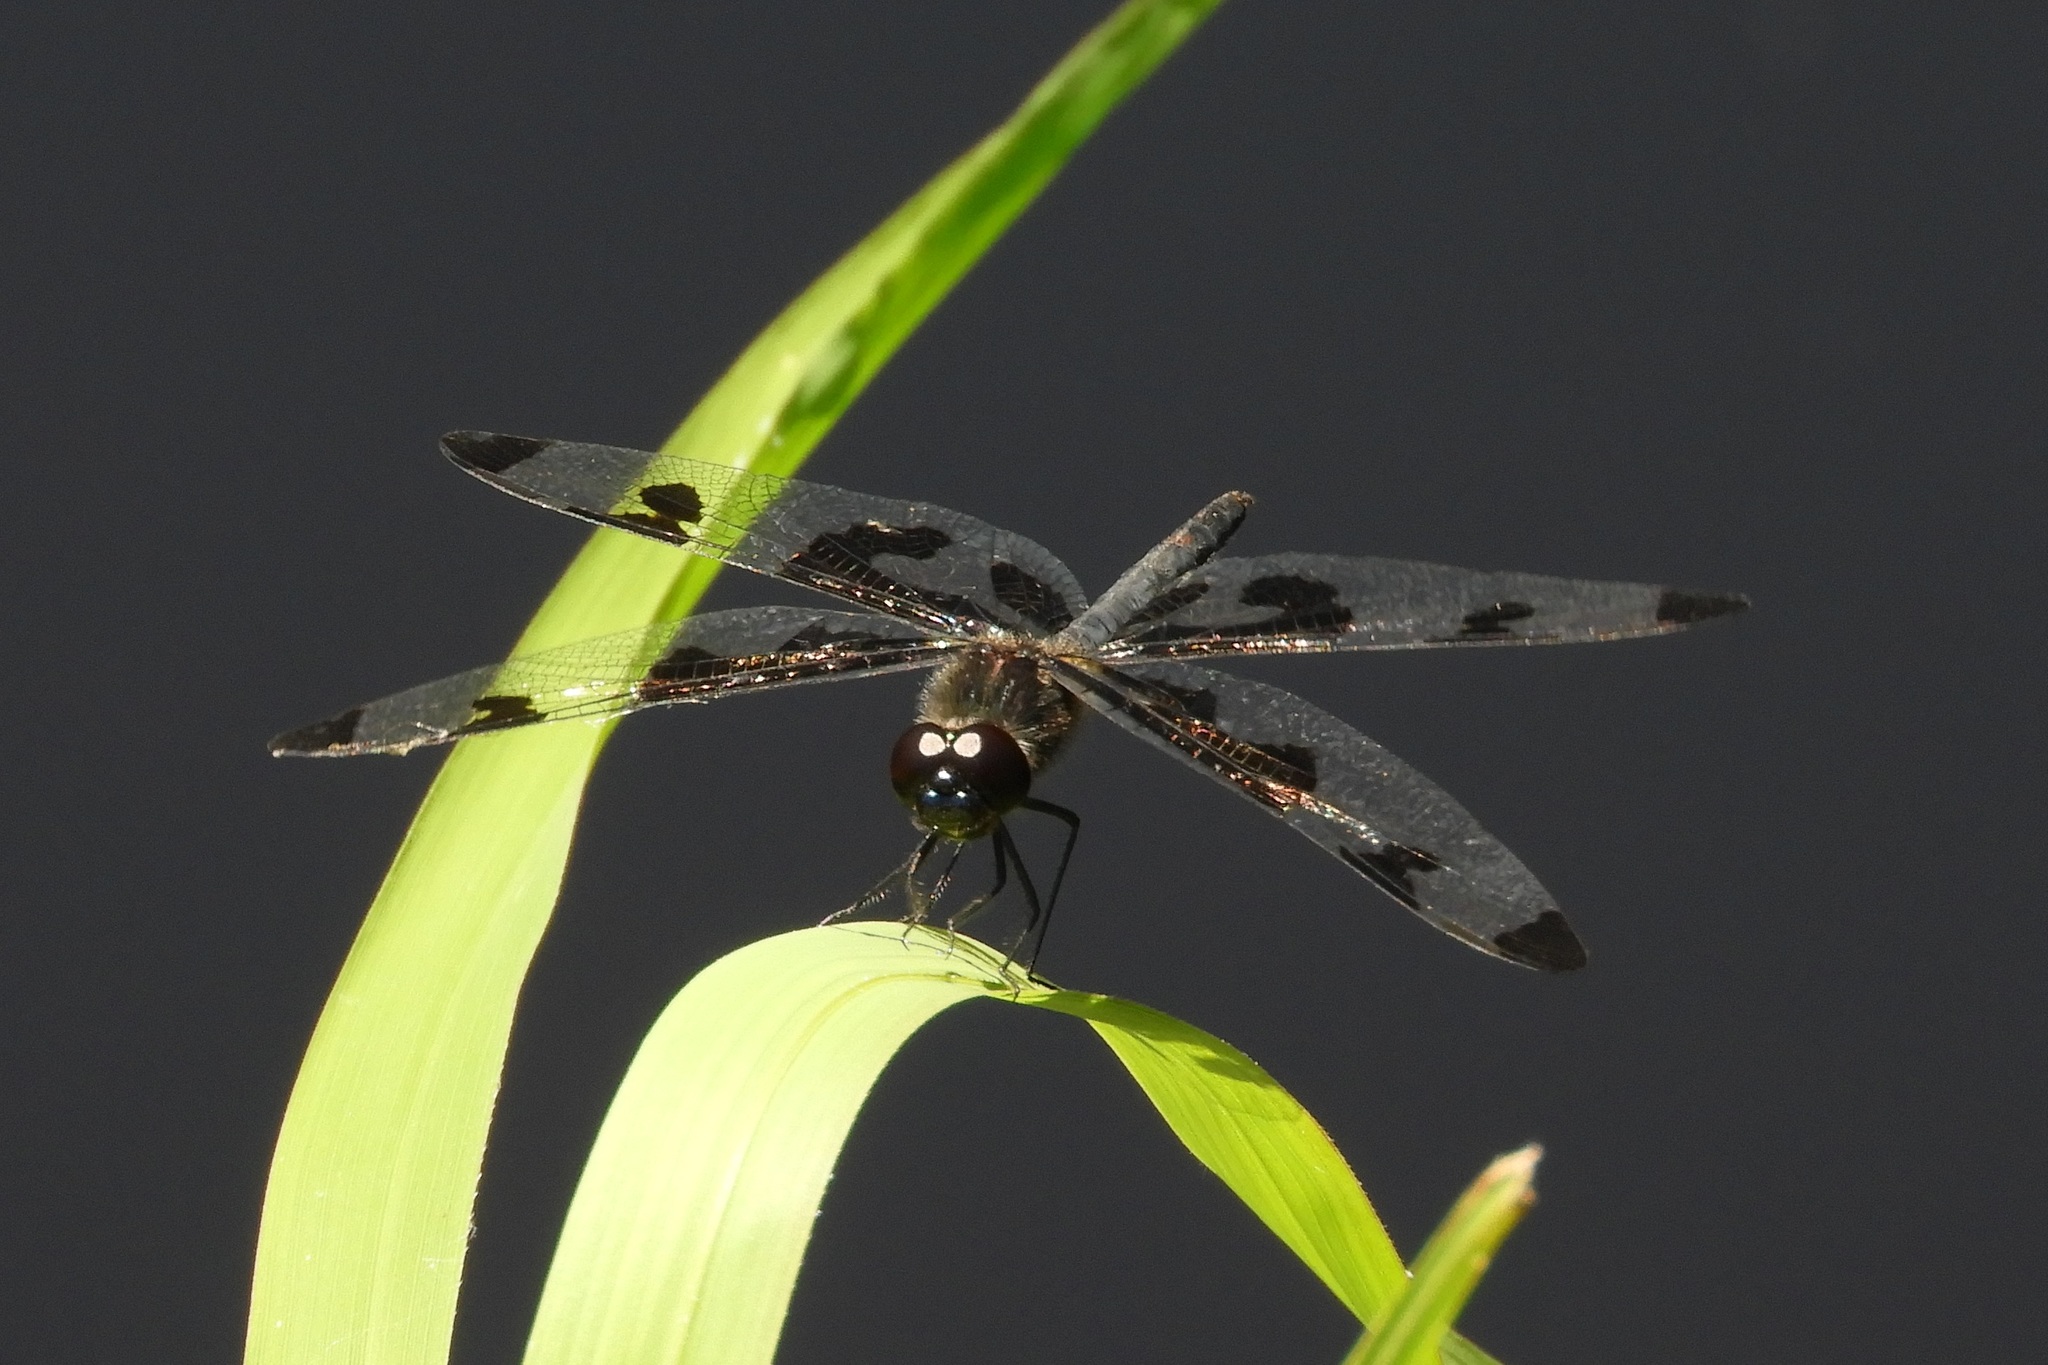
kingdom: Animalia
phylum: Arthropoda
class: Insecta
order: Odonata
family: Libellulidae
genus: Celithemis
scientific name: Celithemis fasciata
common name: Banded pennant
